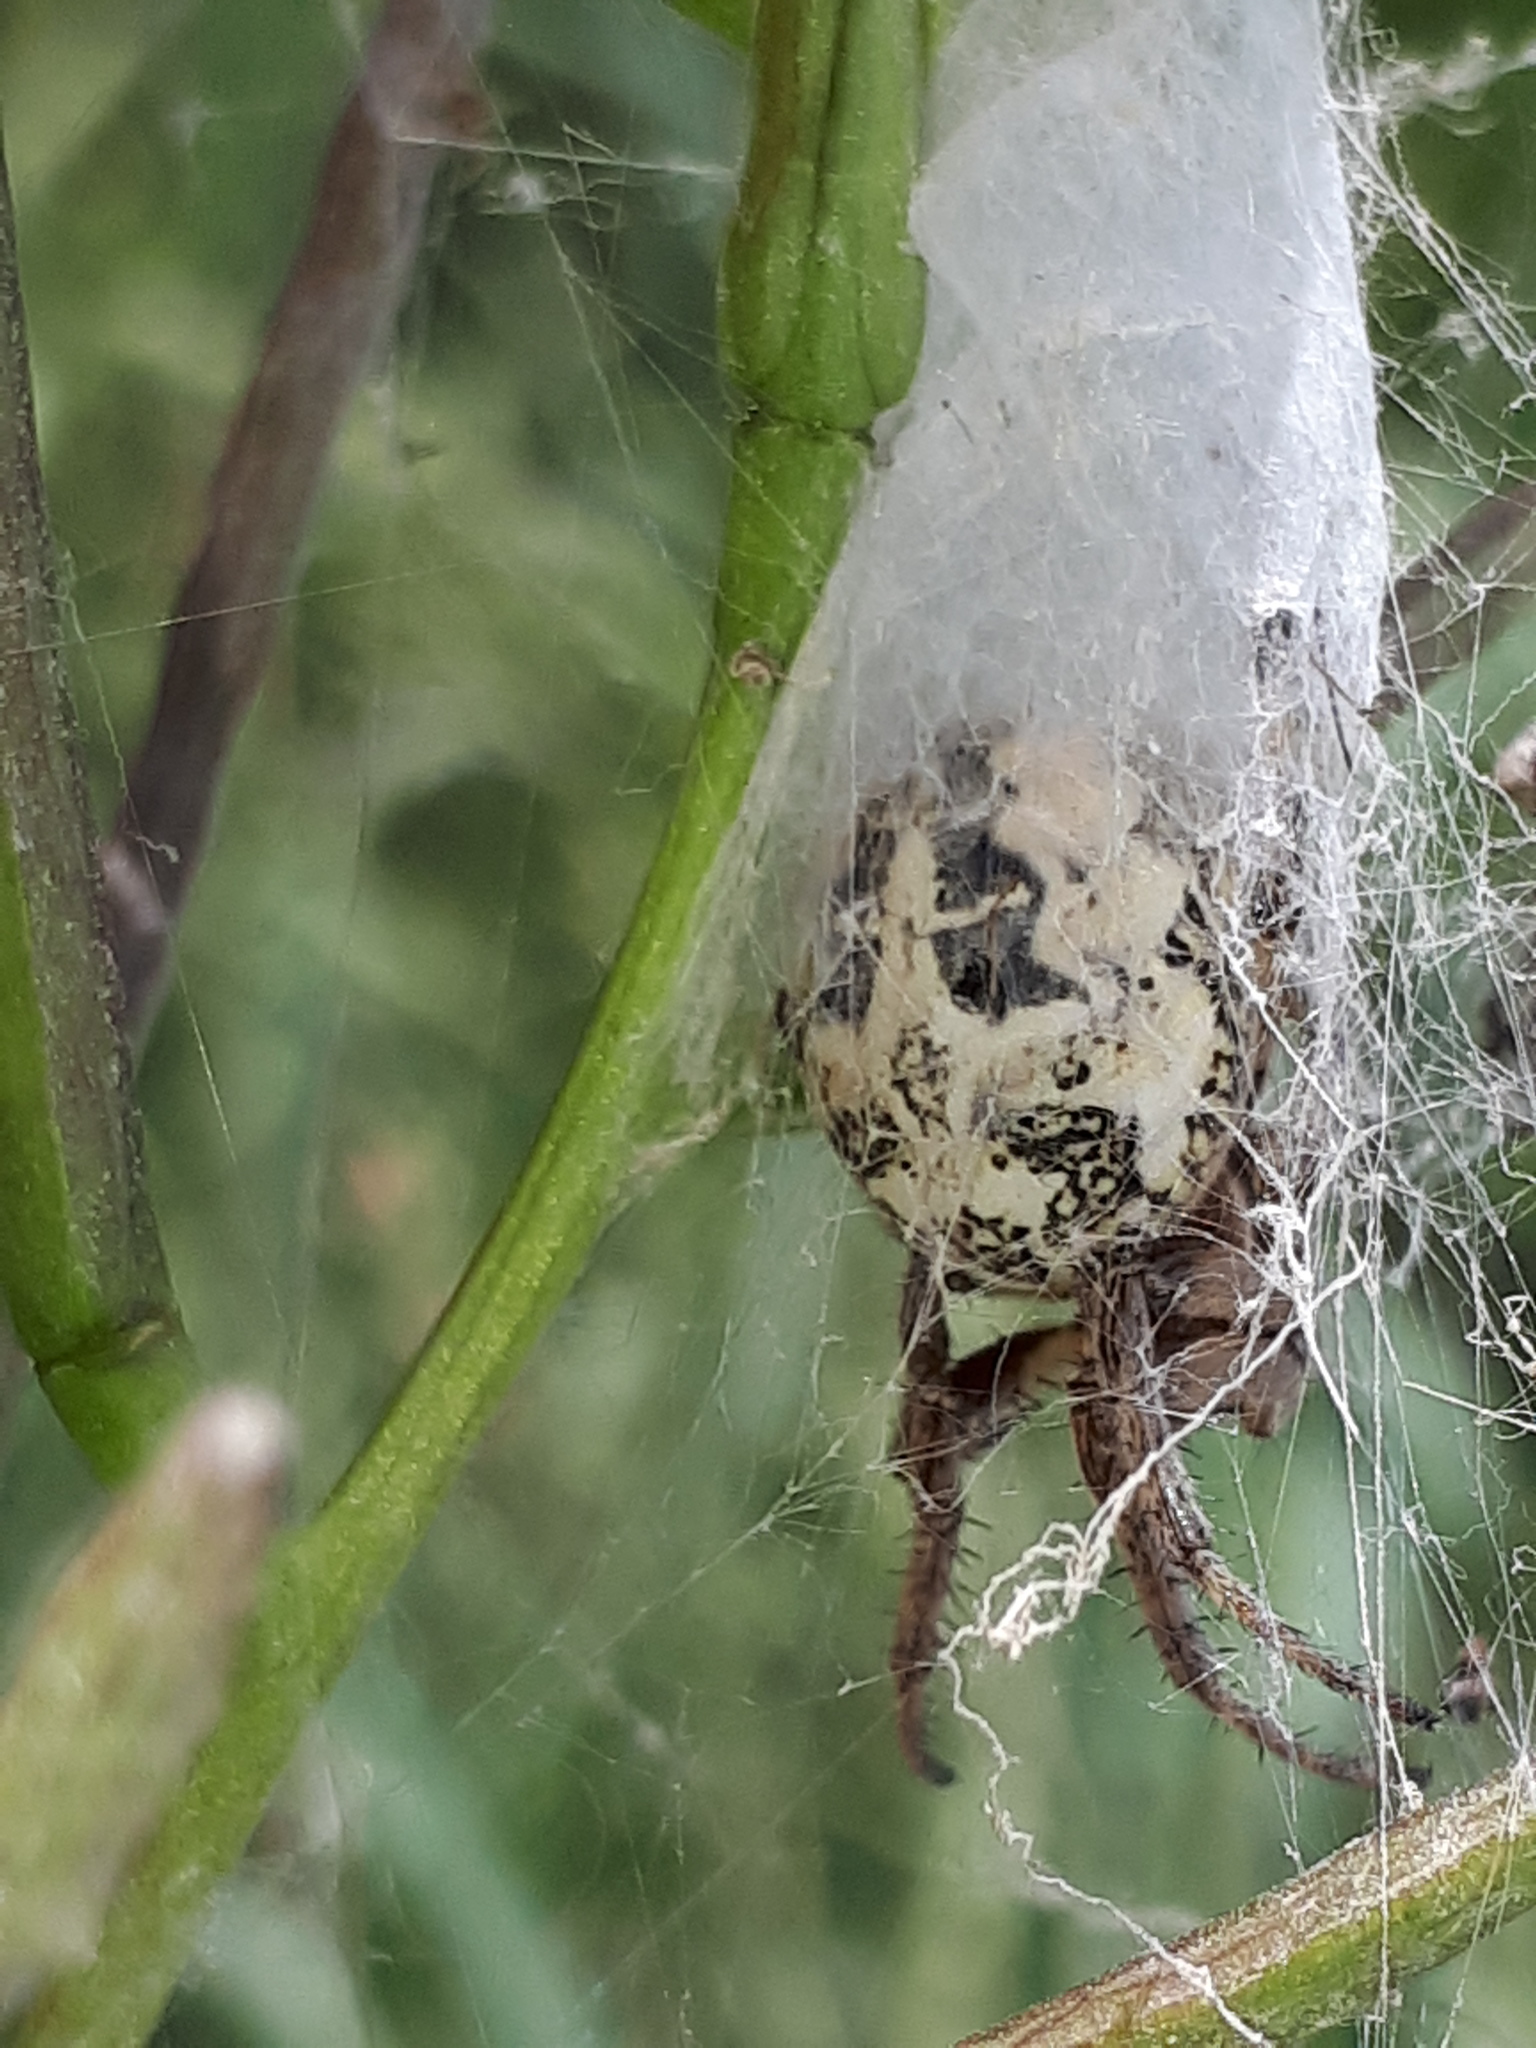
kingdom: Animalia
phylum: Arthropoda
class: Arachnida
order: Araneae
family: Araneidae
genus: Larinioides
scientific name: Larinioides cornutus
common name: Furrow orbweaver
